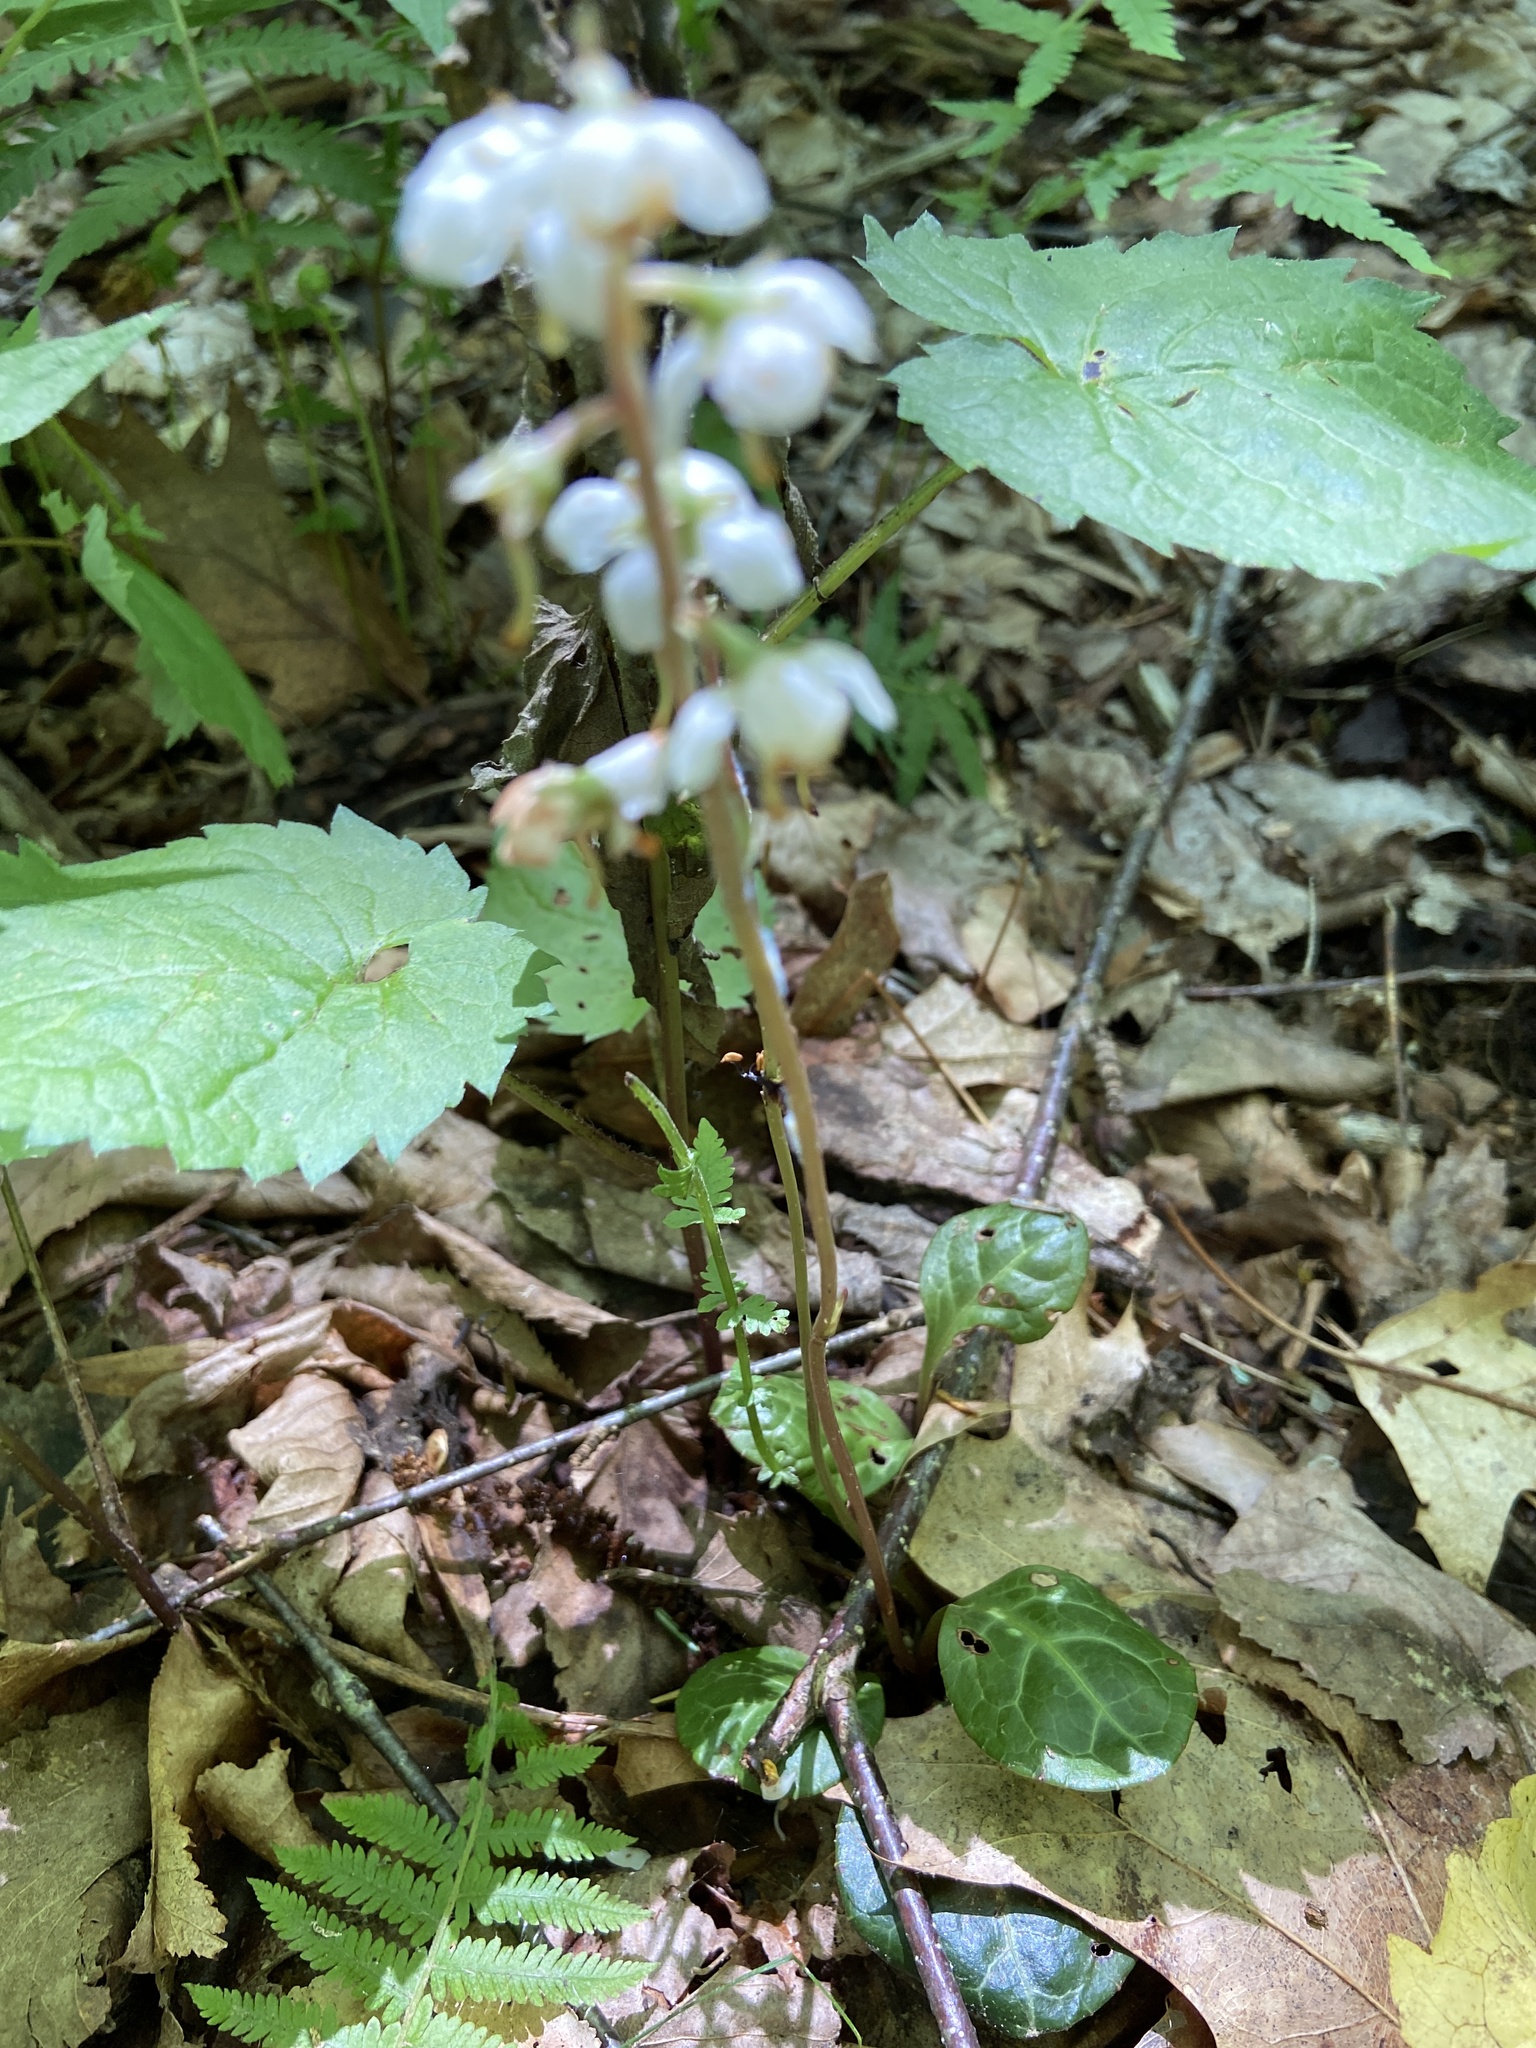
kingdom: Plantae
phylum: Tracheophyta
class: Magnoliopsida
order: Ericales
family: Ericaceae
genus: Pyrola
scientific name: Pyrola americana
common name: American wintergreen
